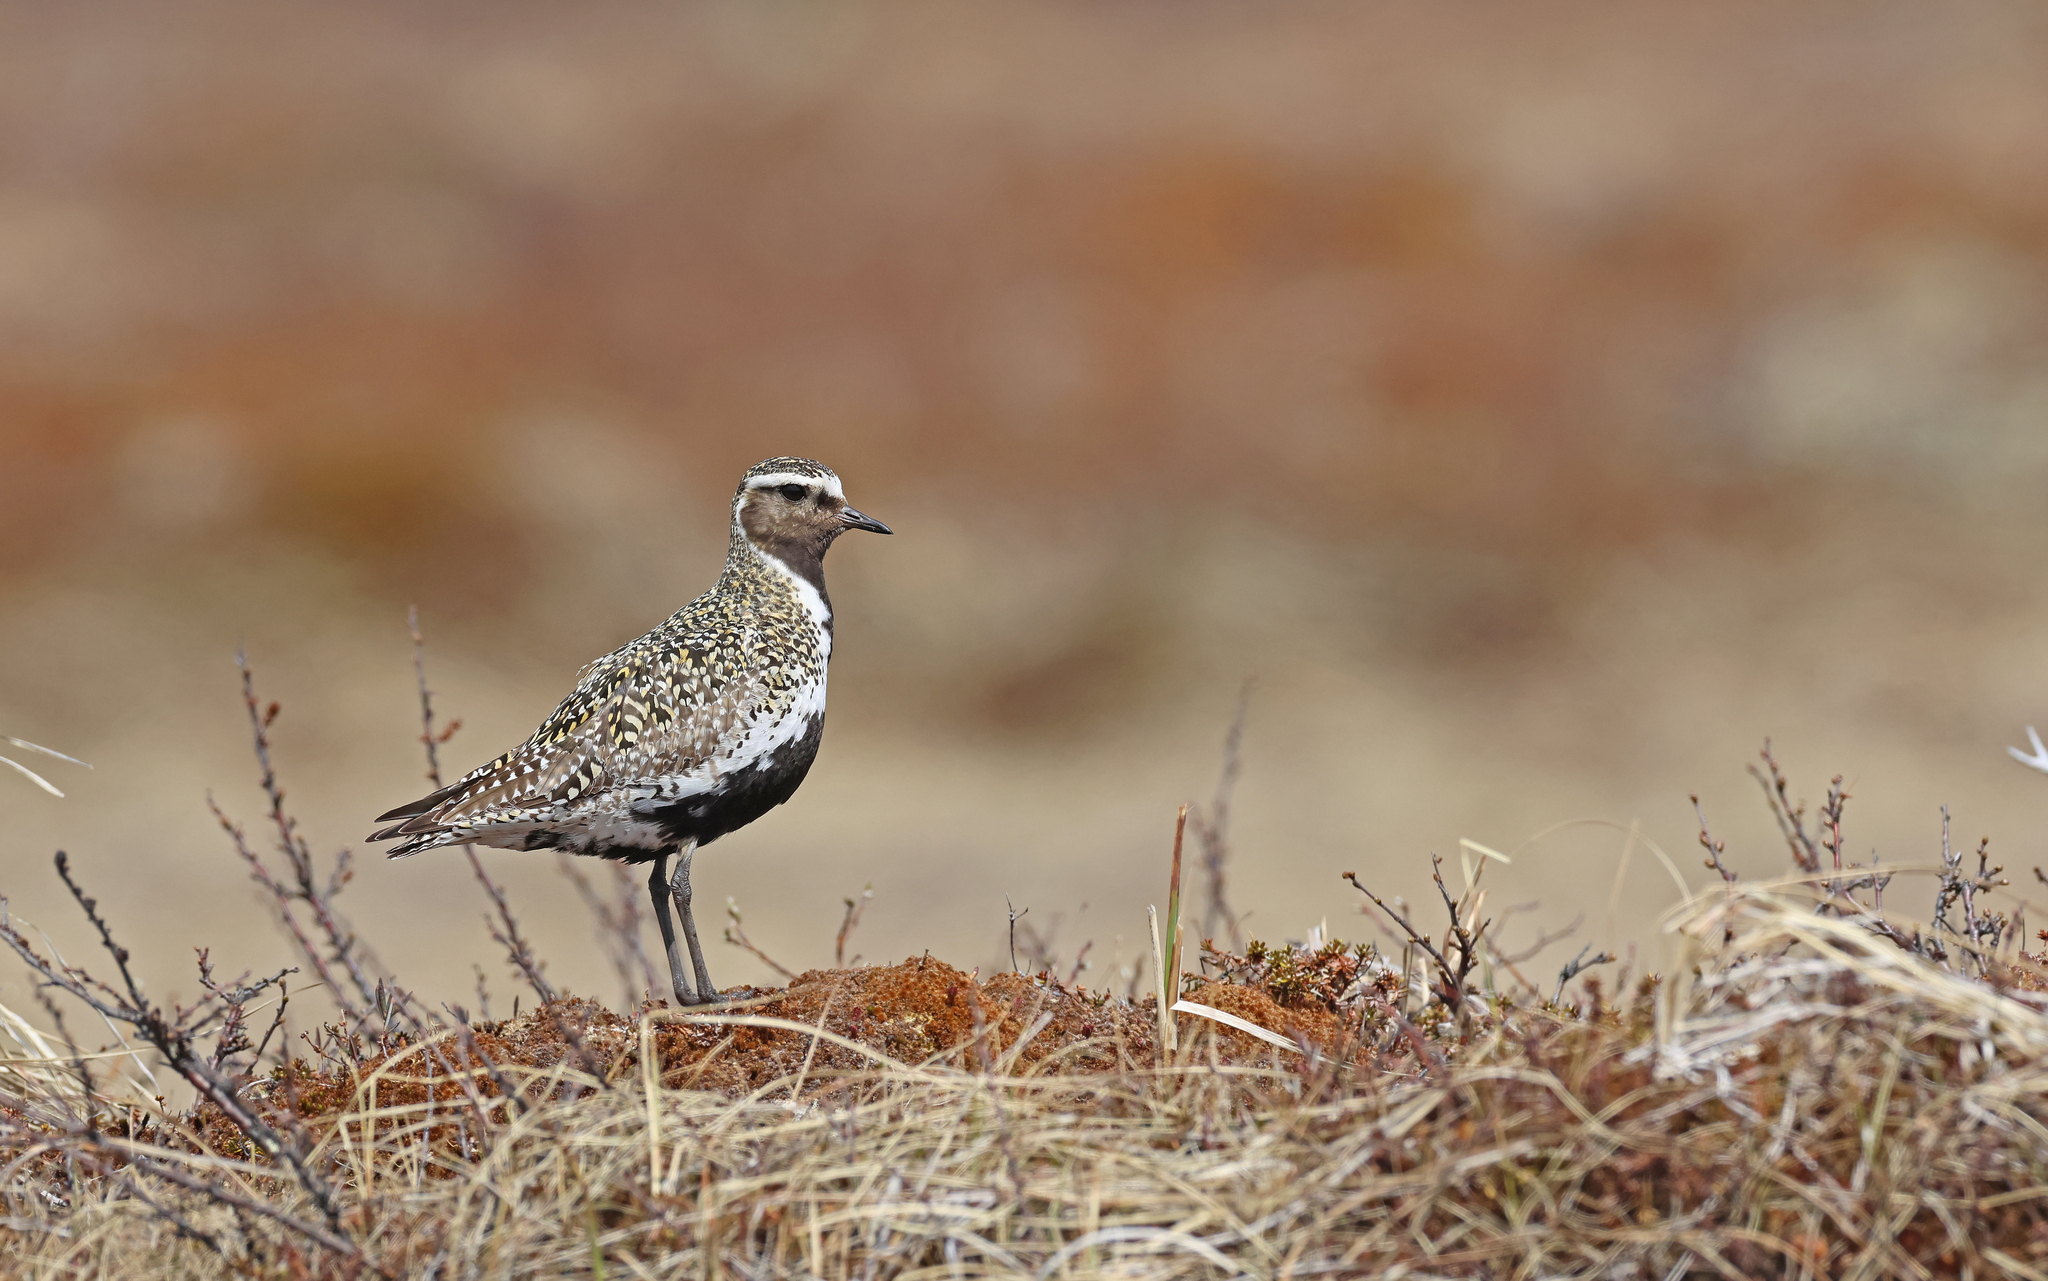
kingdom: Animalia
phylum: Chordata
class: Aves
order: Charadriiformes
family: Charadriidae
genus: Pluvialis
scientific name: Pluvialis apricaria
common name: European golden plover
